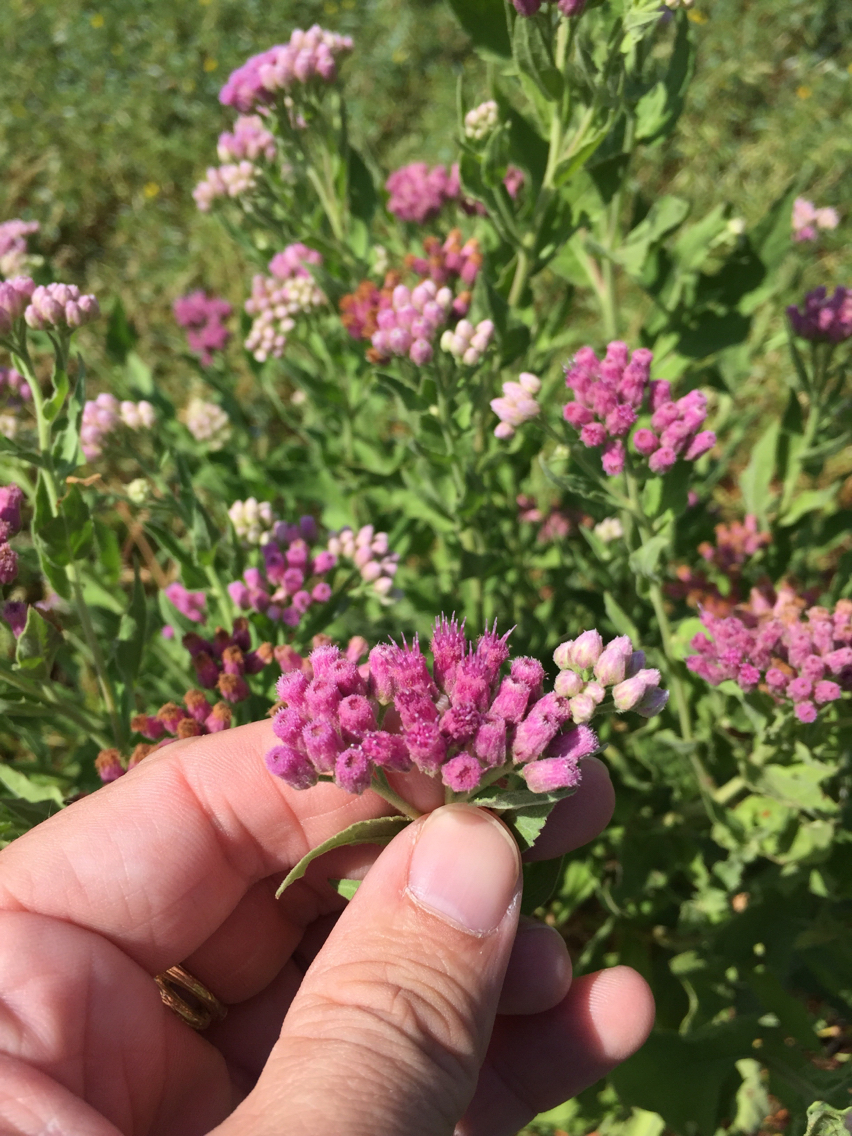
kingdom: Plantae
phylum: Tracheophyta
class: Magnoliopsida
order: Asterales
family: Asteraceae
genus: Pluchea
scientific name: Pluchea odorata
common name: Saltmarsh fleabane
